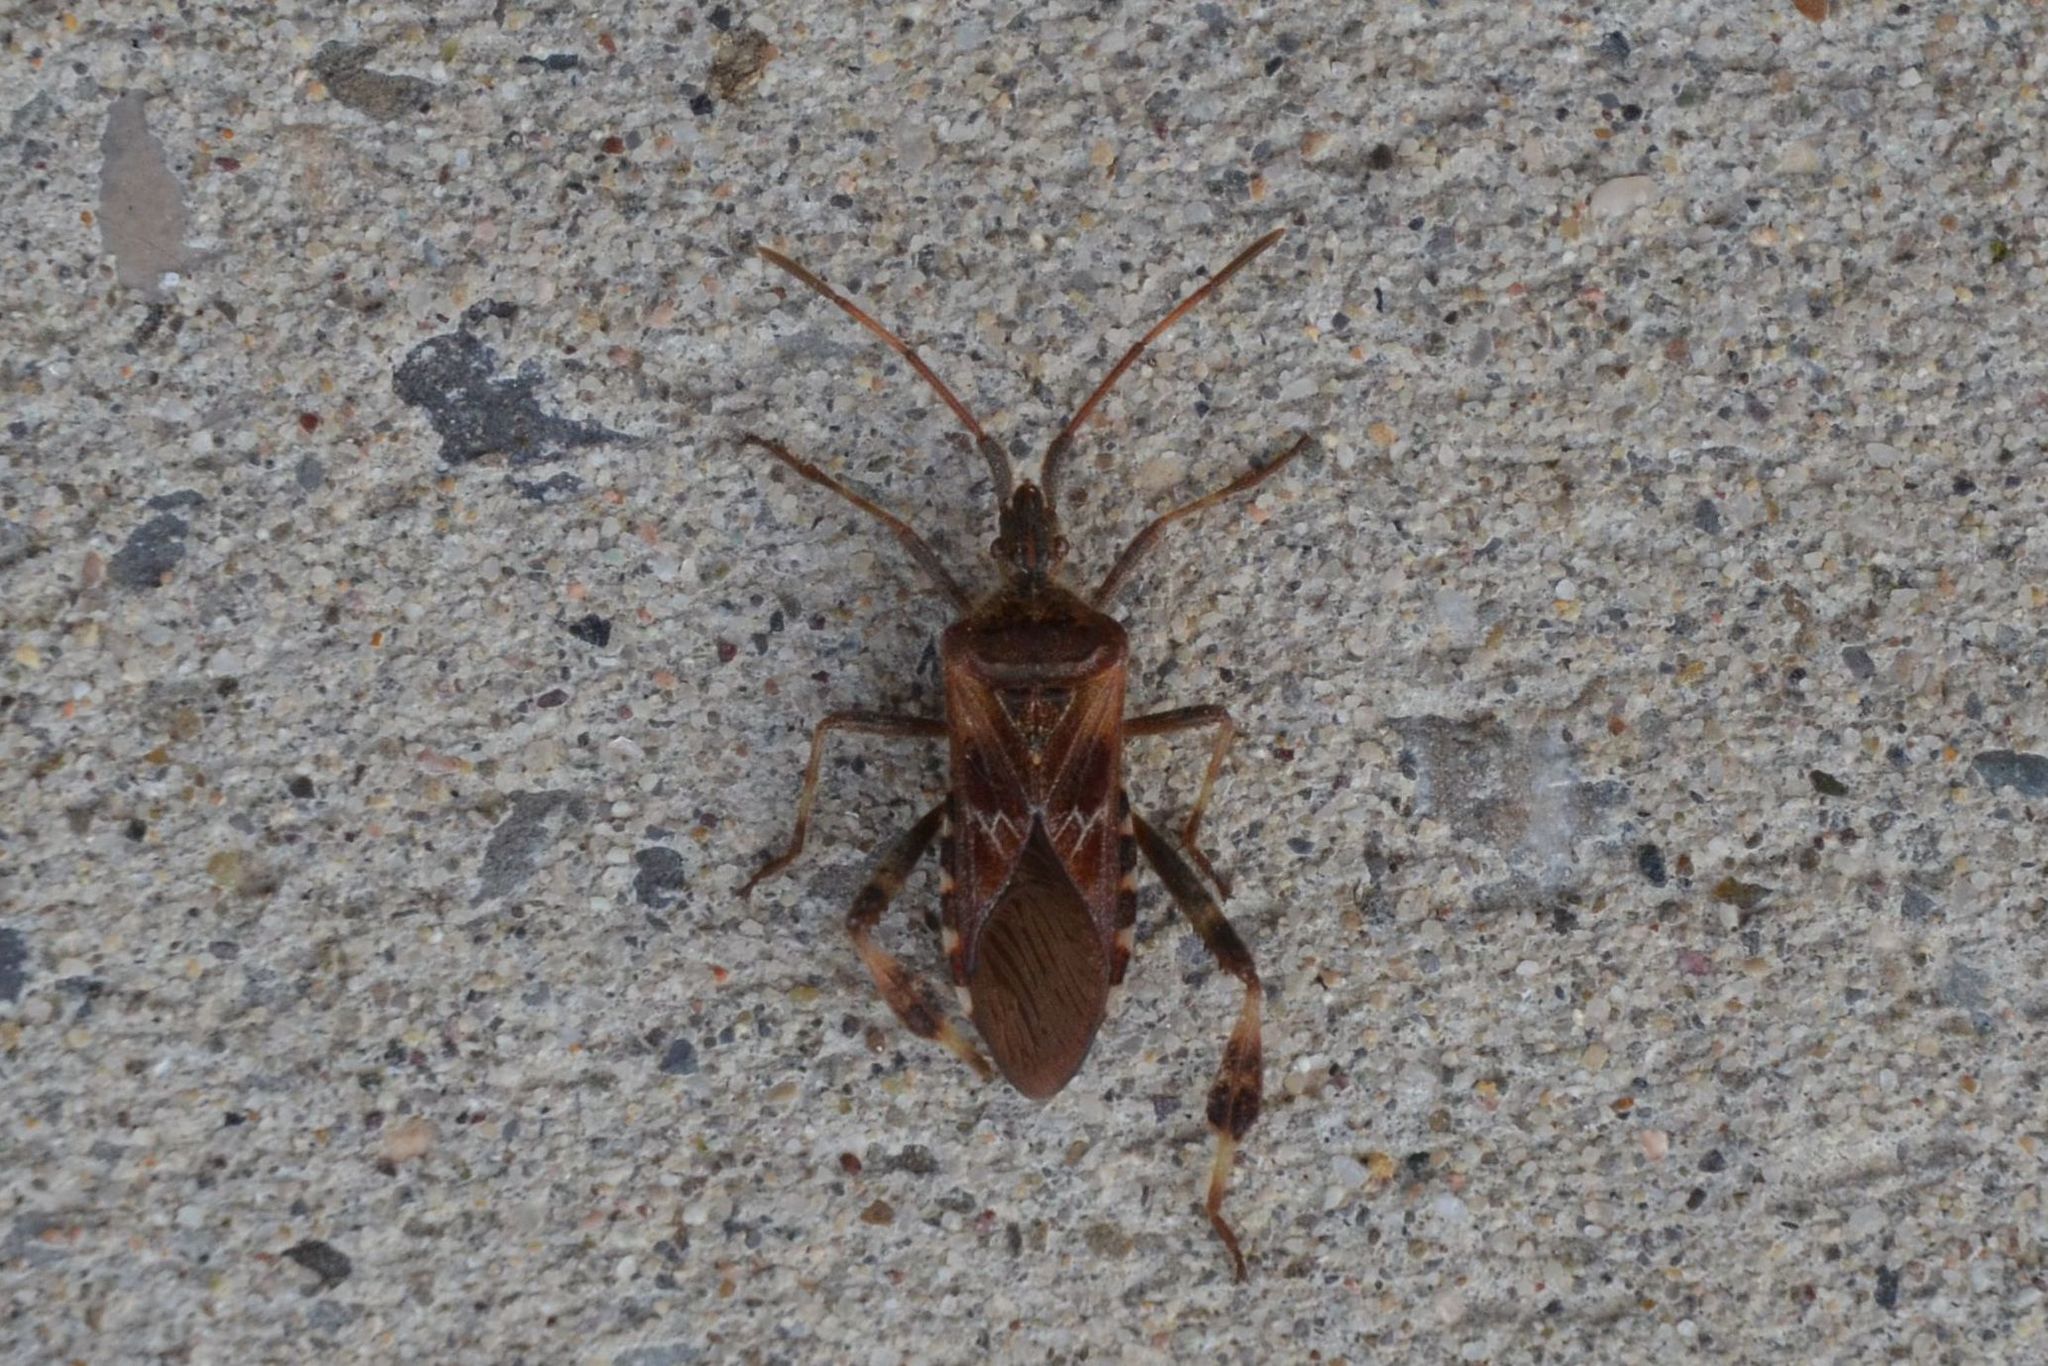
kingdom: Animalia
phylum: Arthropoda
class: Insecta
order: Hemiptera
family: Coreidae
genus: Leptoglossus
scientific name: Leptoglossus occidentalis
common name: Western conifer-seed bug
